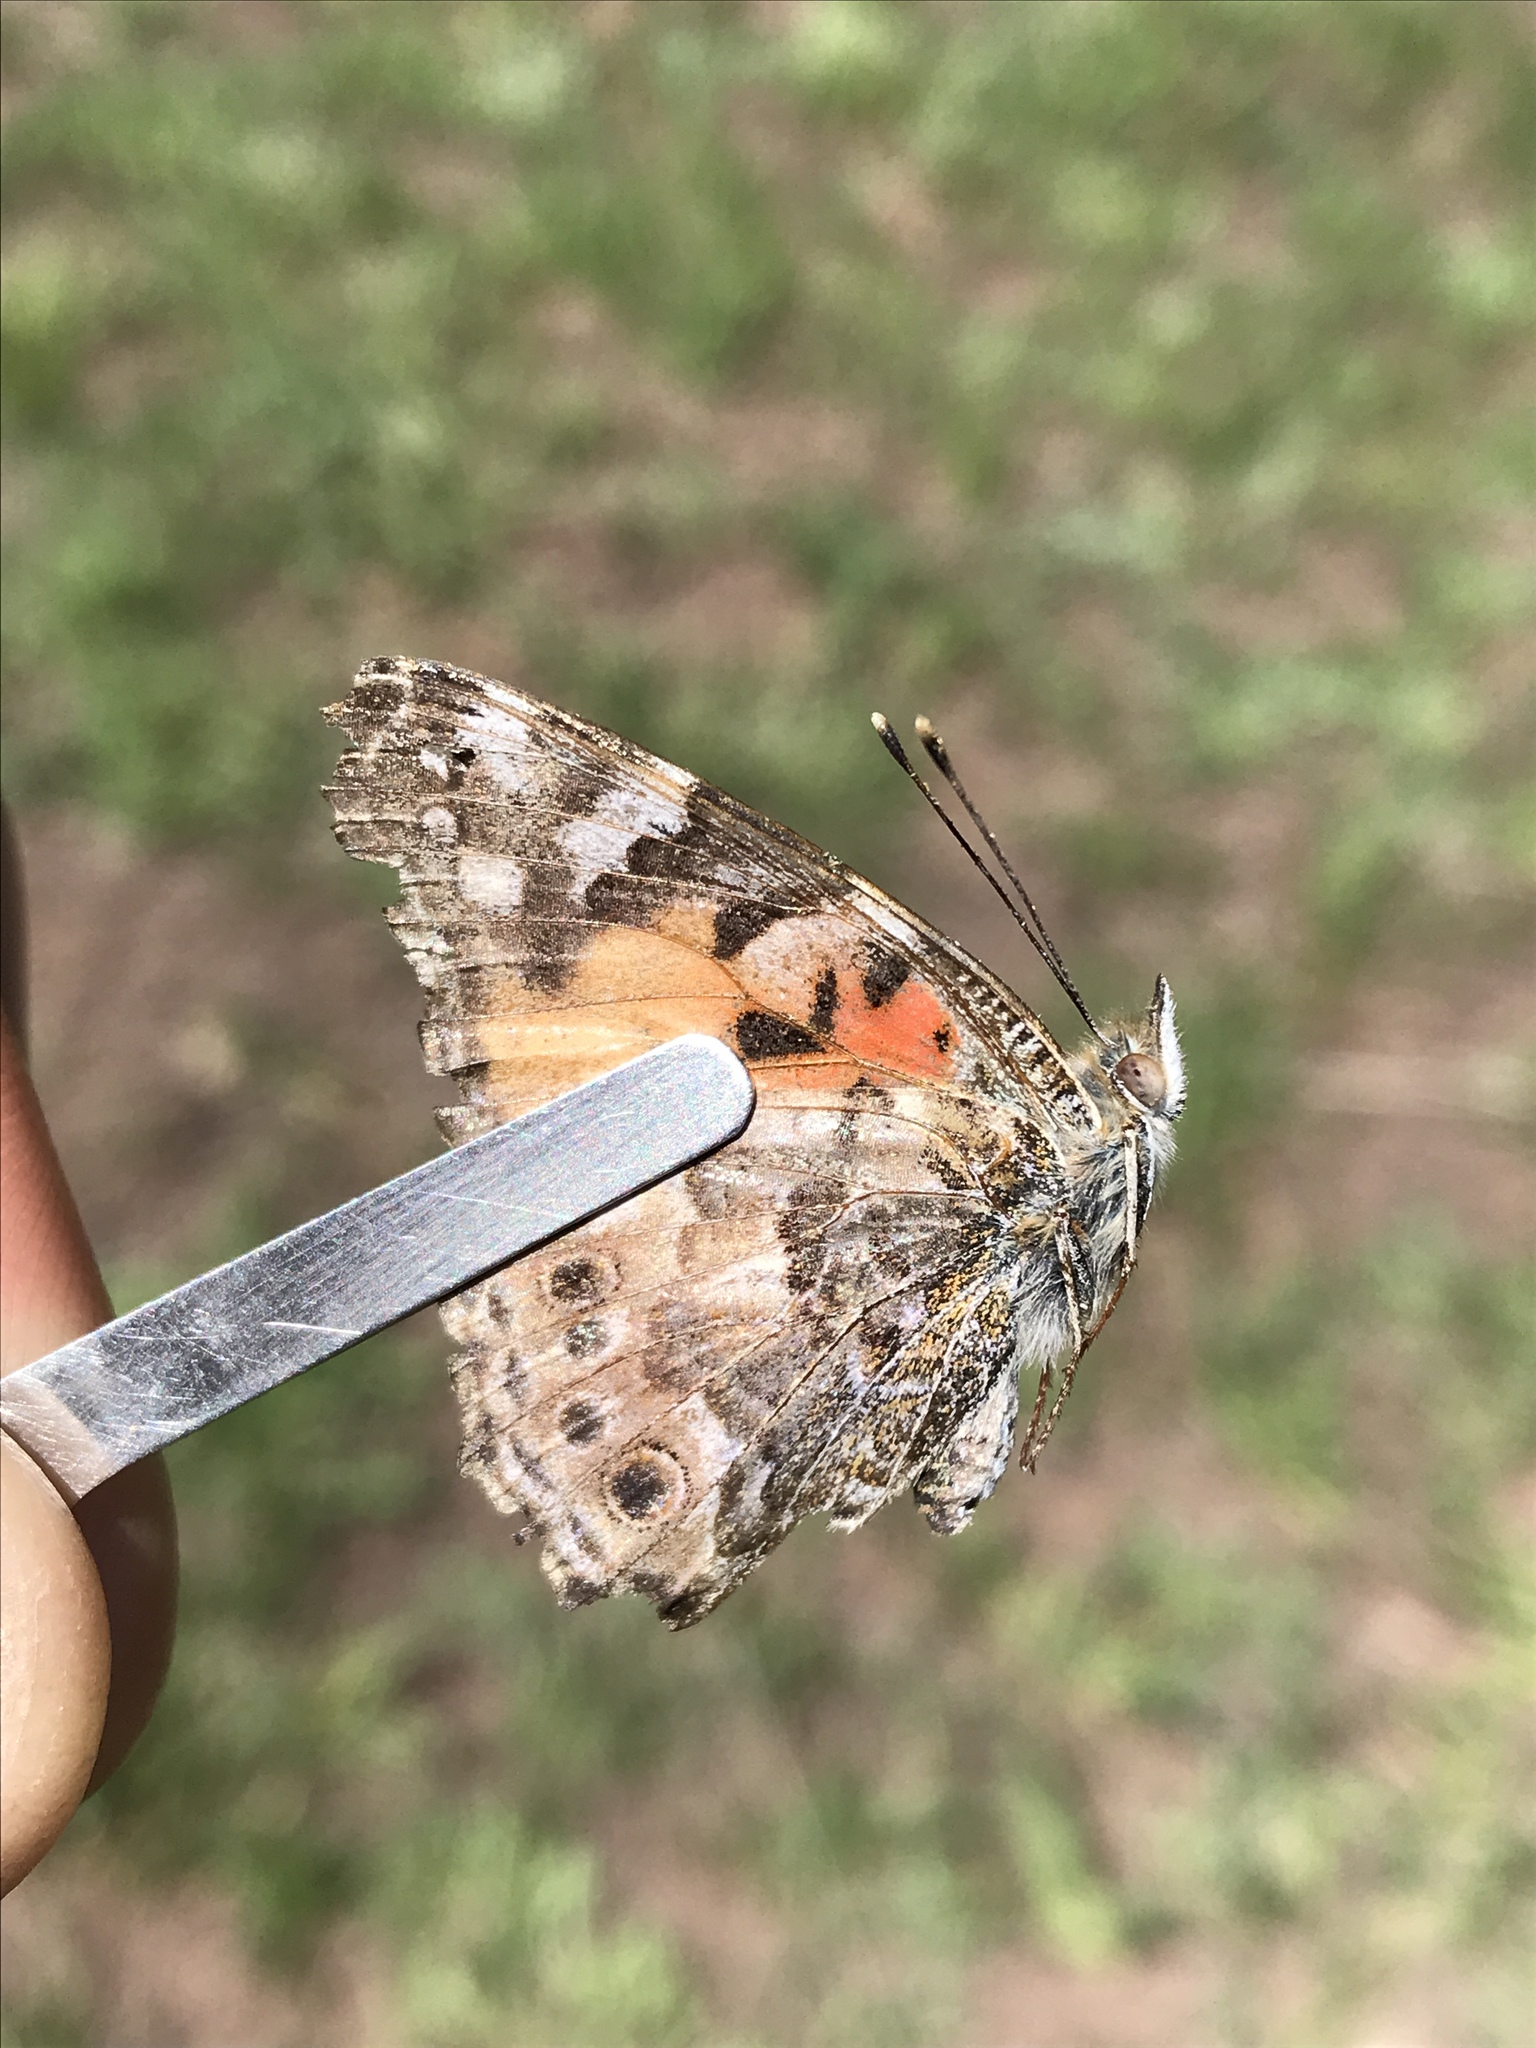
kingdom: Animalia
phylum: Arthropoda
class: Insecta
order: Lepidoptera
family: Nymphalidae
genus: Vanessa
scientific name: Vanessa cardui
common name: Painted lady
